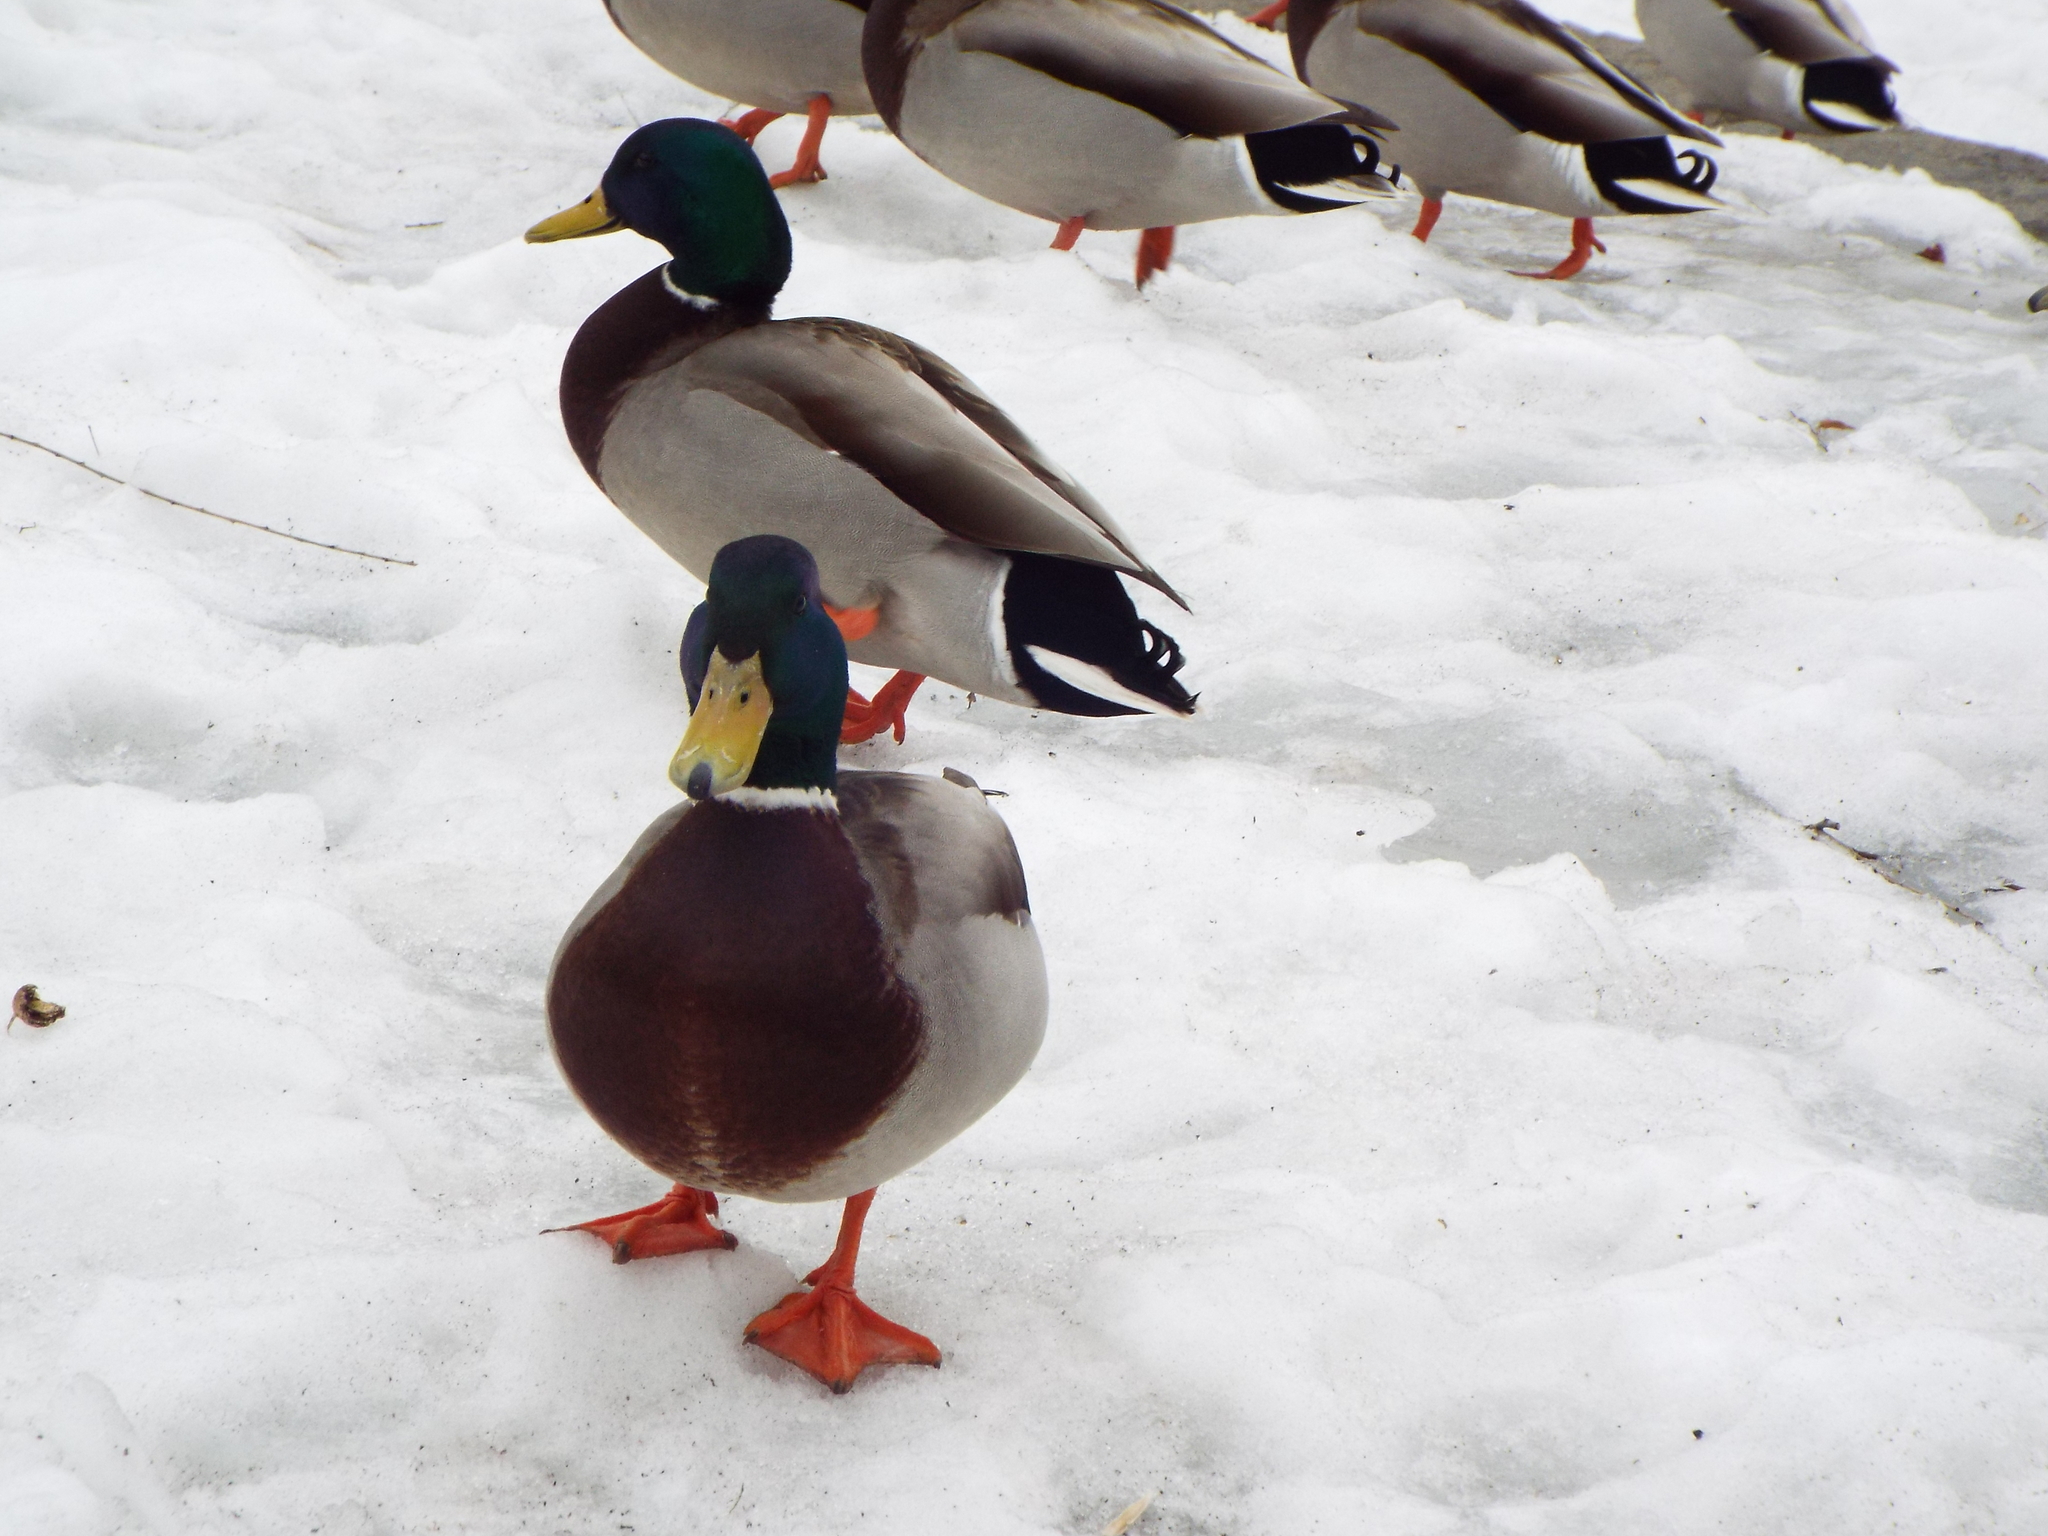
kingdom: Animalia
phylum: Chordata
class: Aves
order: Anseriformes
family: Anatidae
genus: Anas
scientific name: Anas platyrhynchos
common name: Mallard
